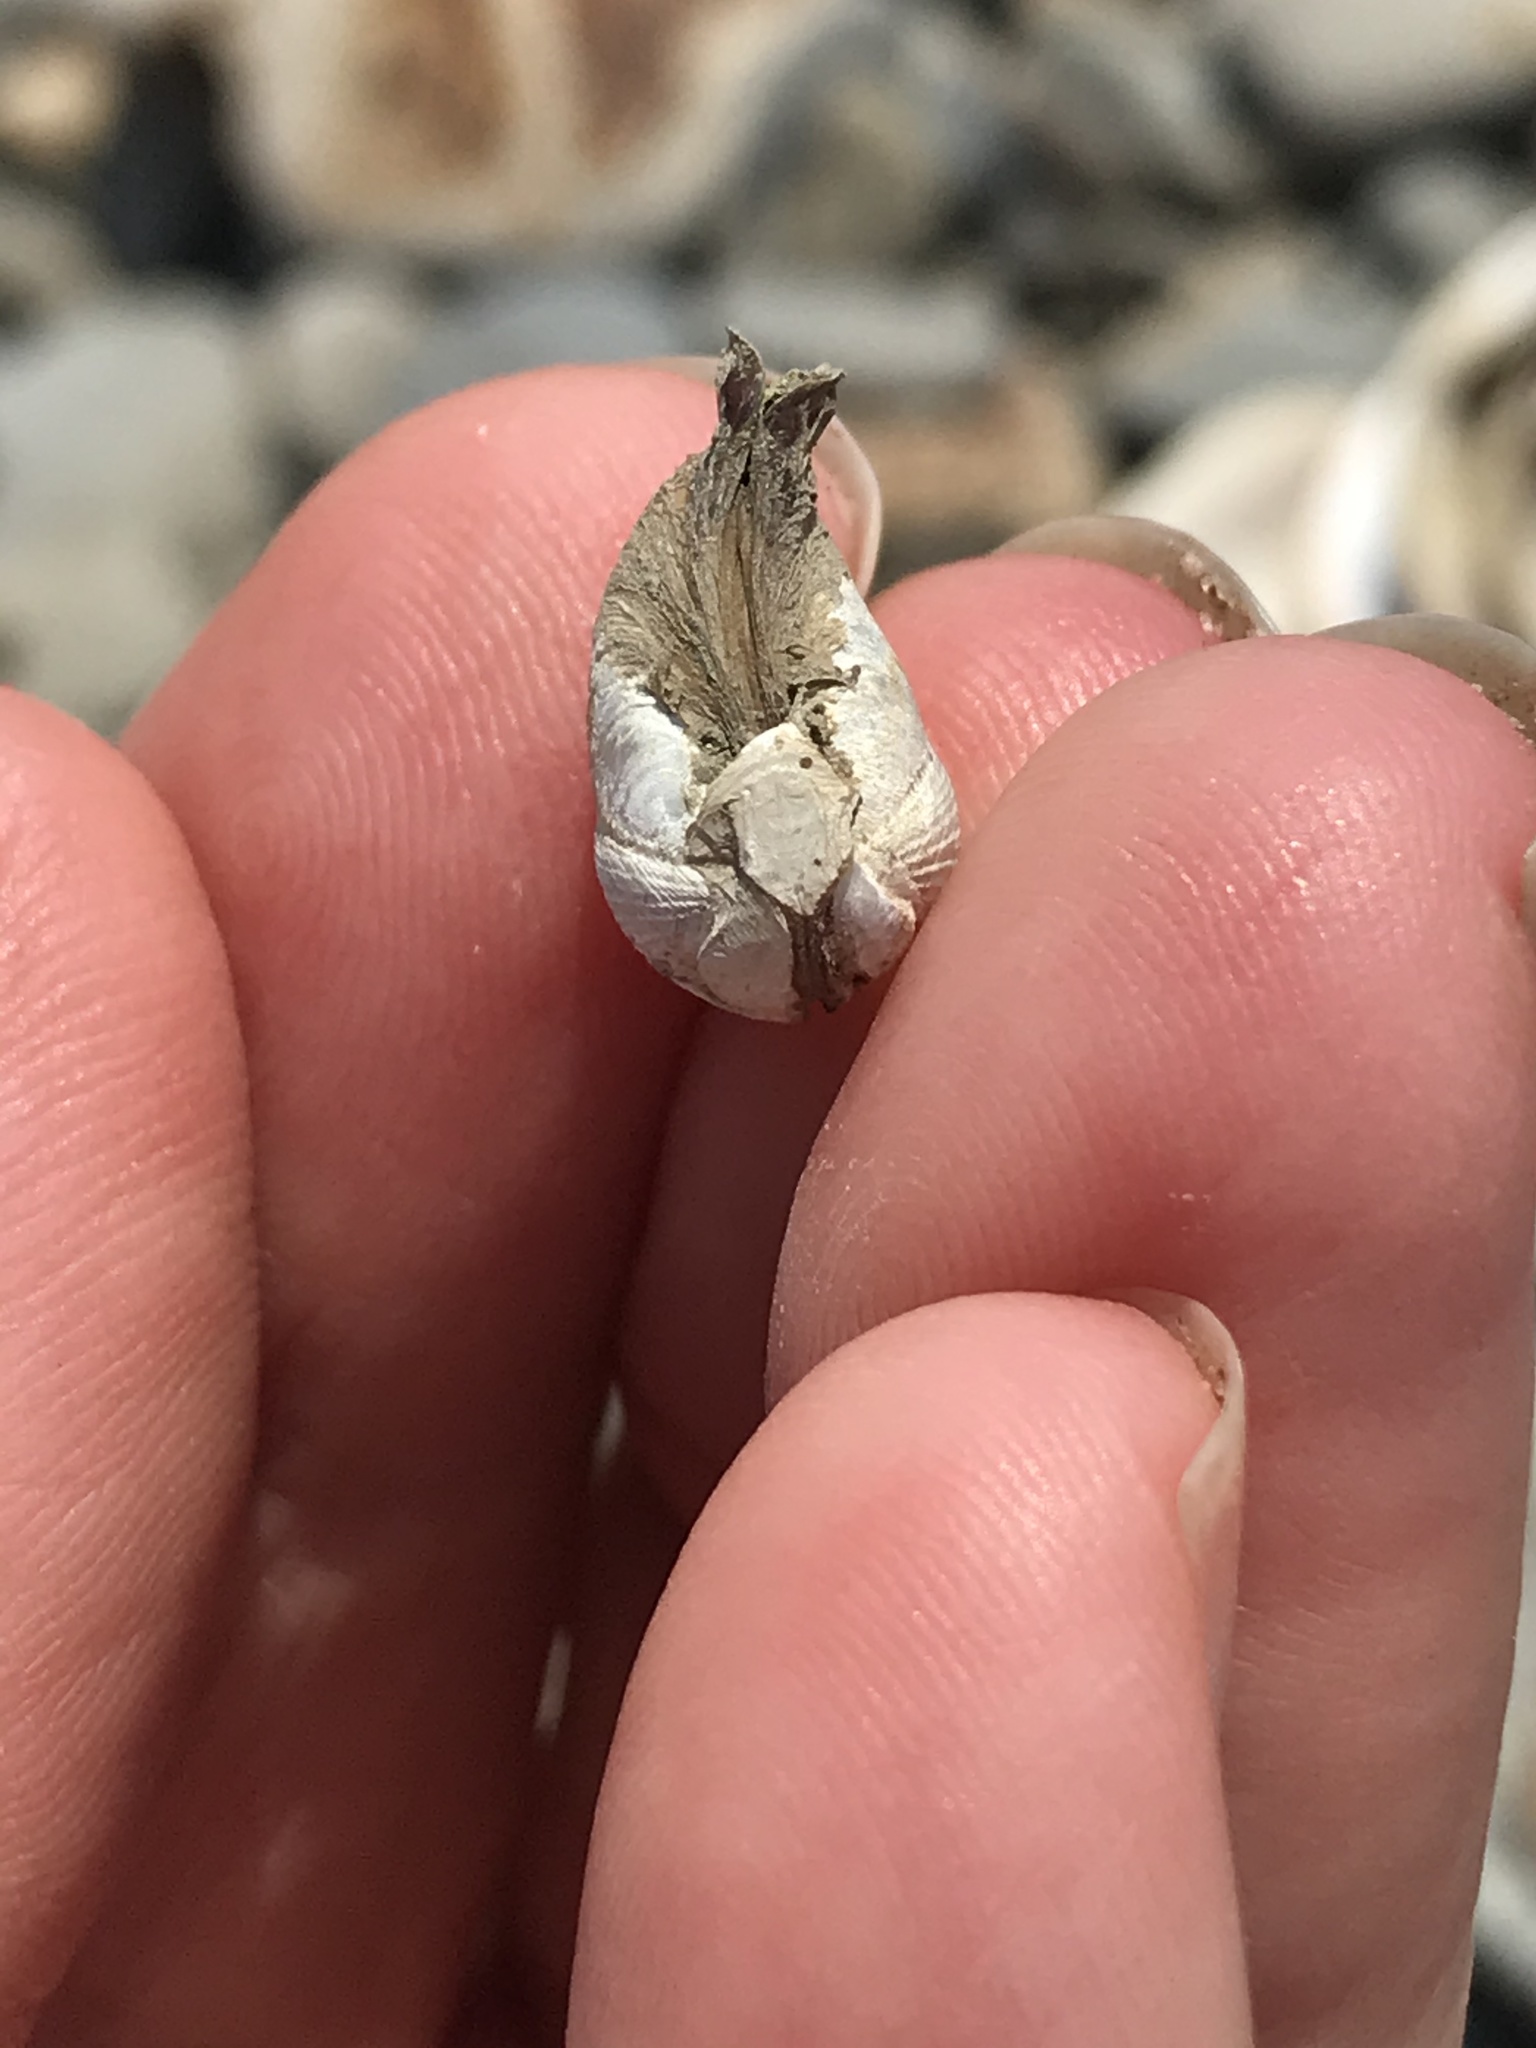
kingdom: Animalia
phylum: Mollusca
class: Bivalvia
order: Myida
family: Pholadidae
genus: Penitella
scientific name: Penitella penita
